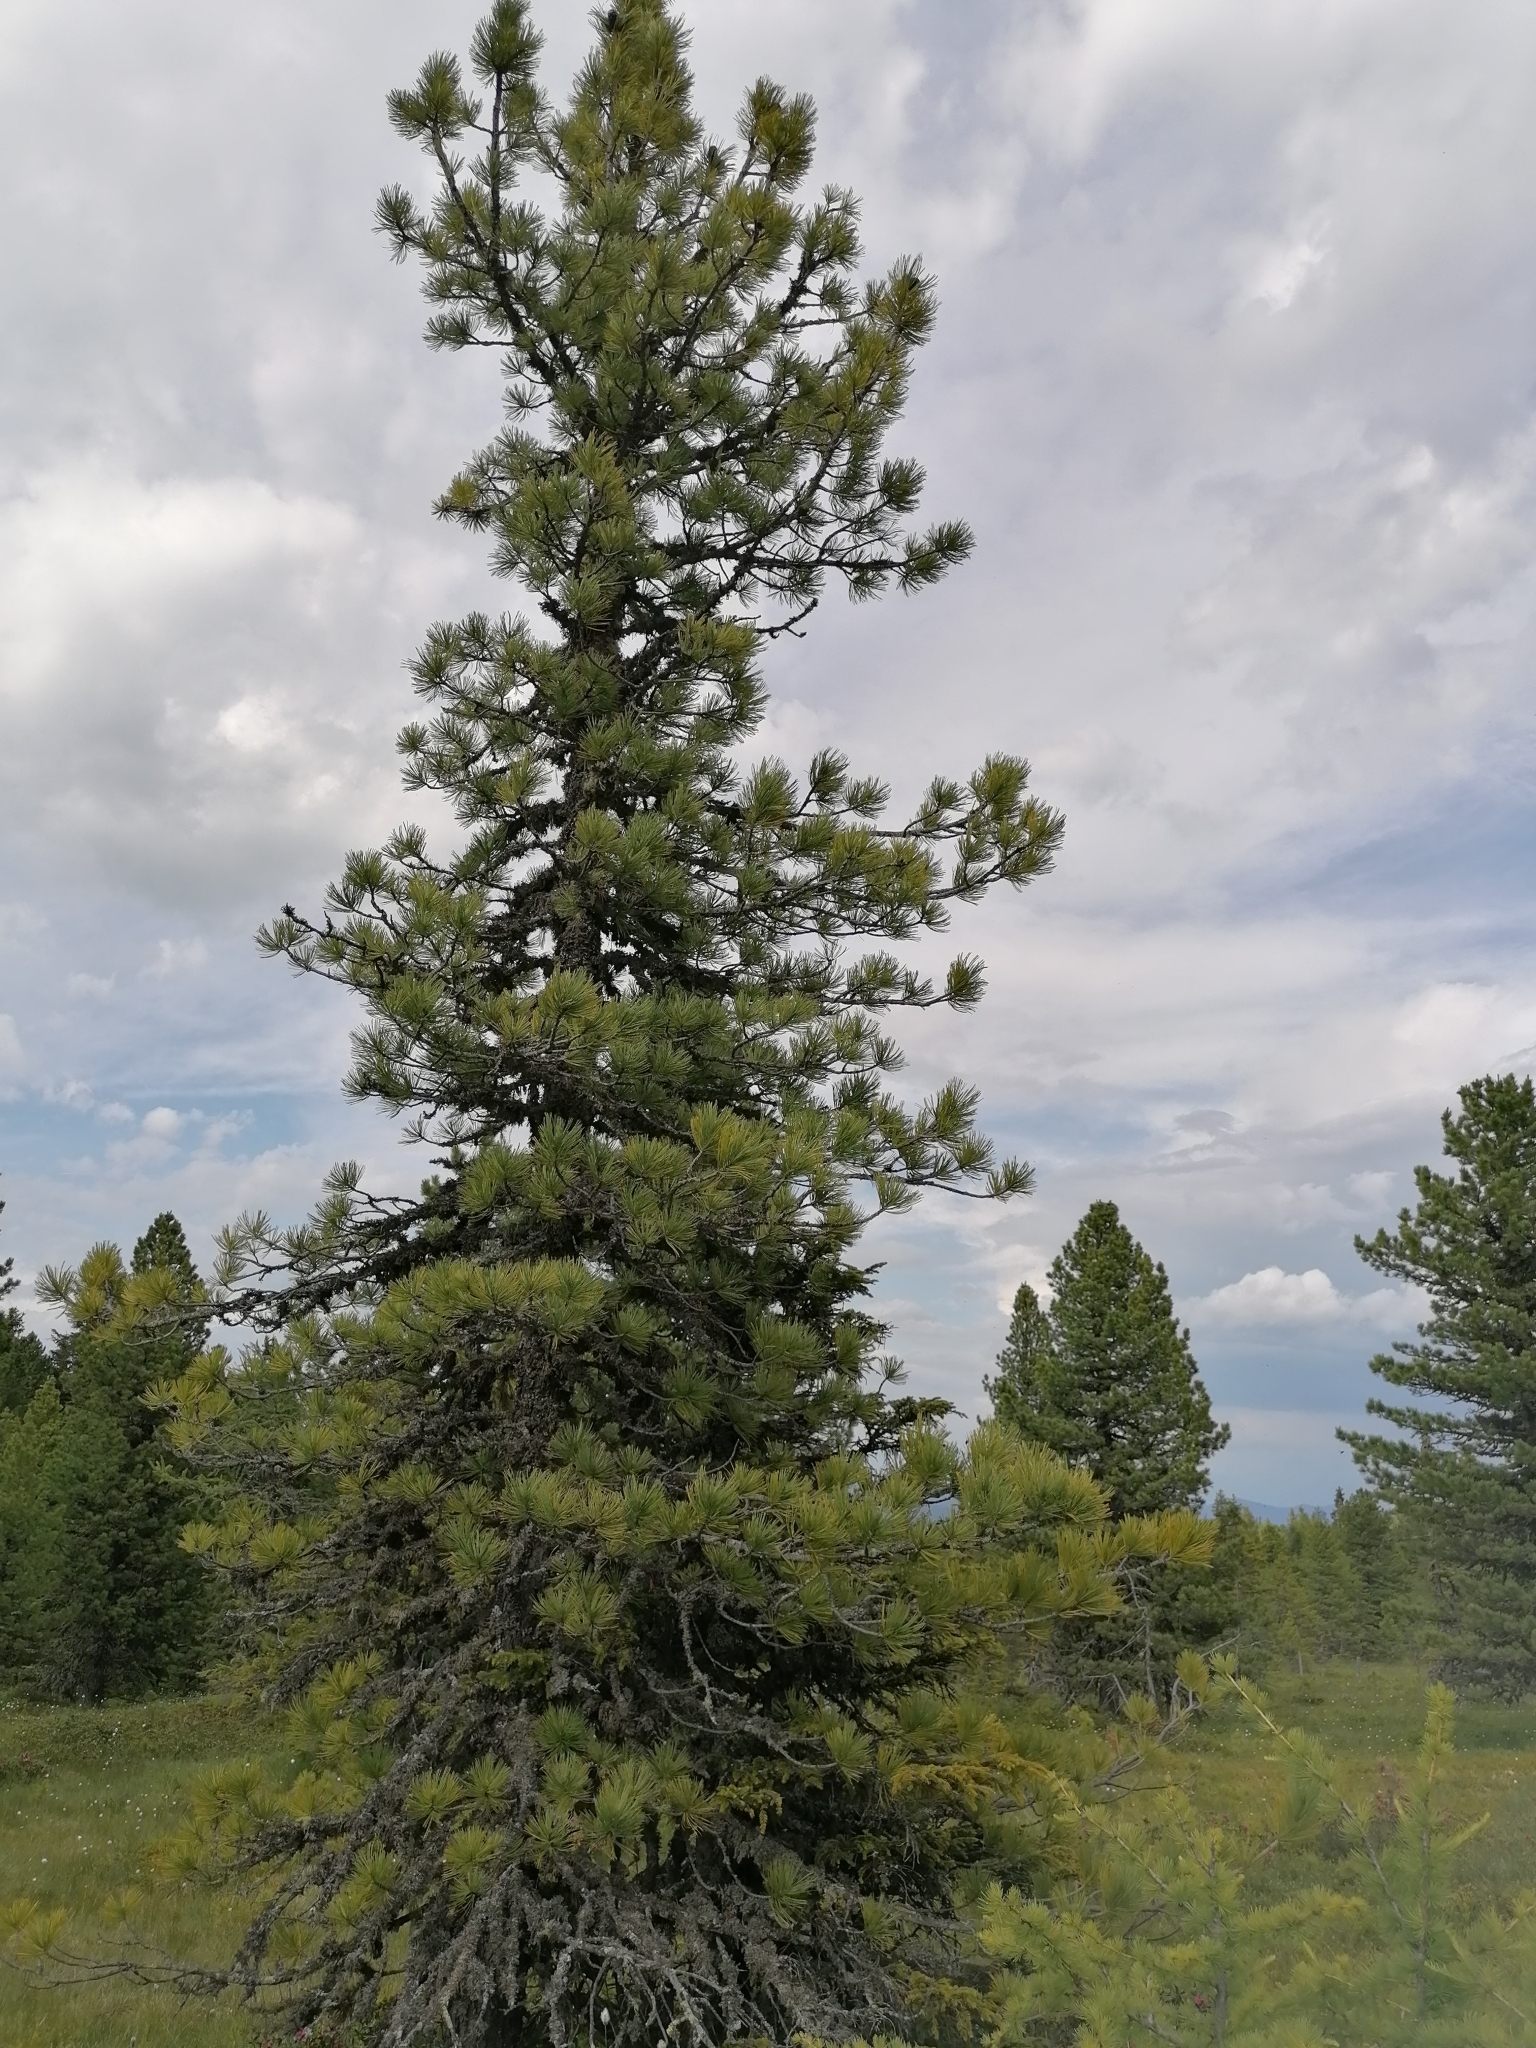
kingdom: Plantae
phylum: Tracheophyta
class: Pinopsida
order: Pinales
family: Pinaceae
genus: Pinus
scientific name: Pinus cembra
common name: Arolla pine
